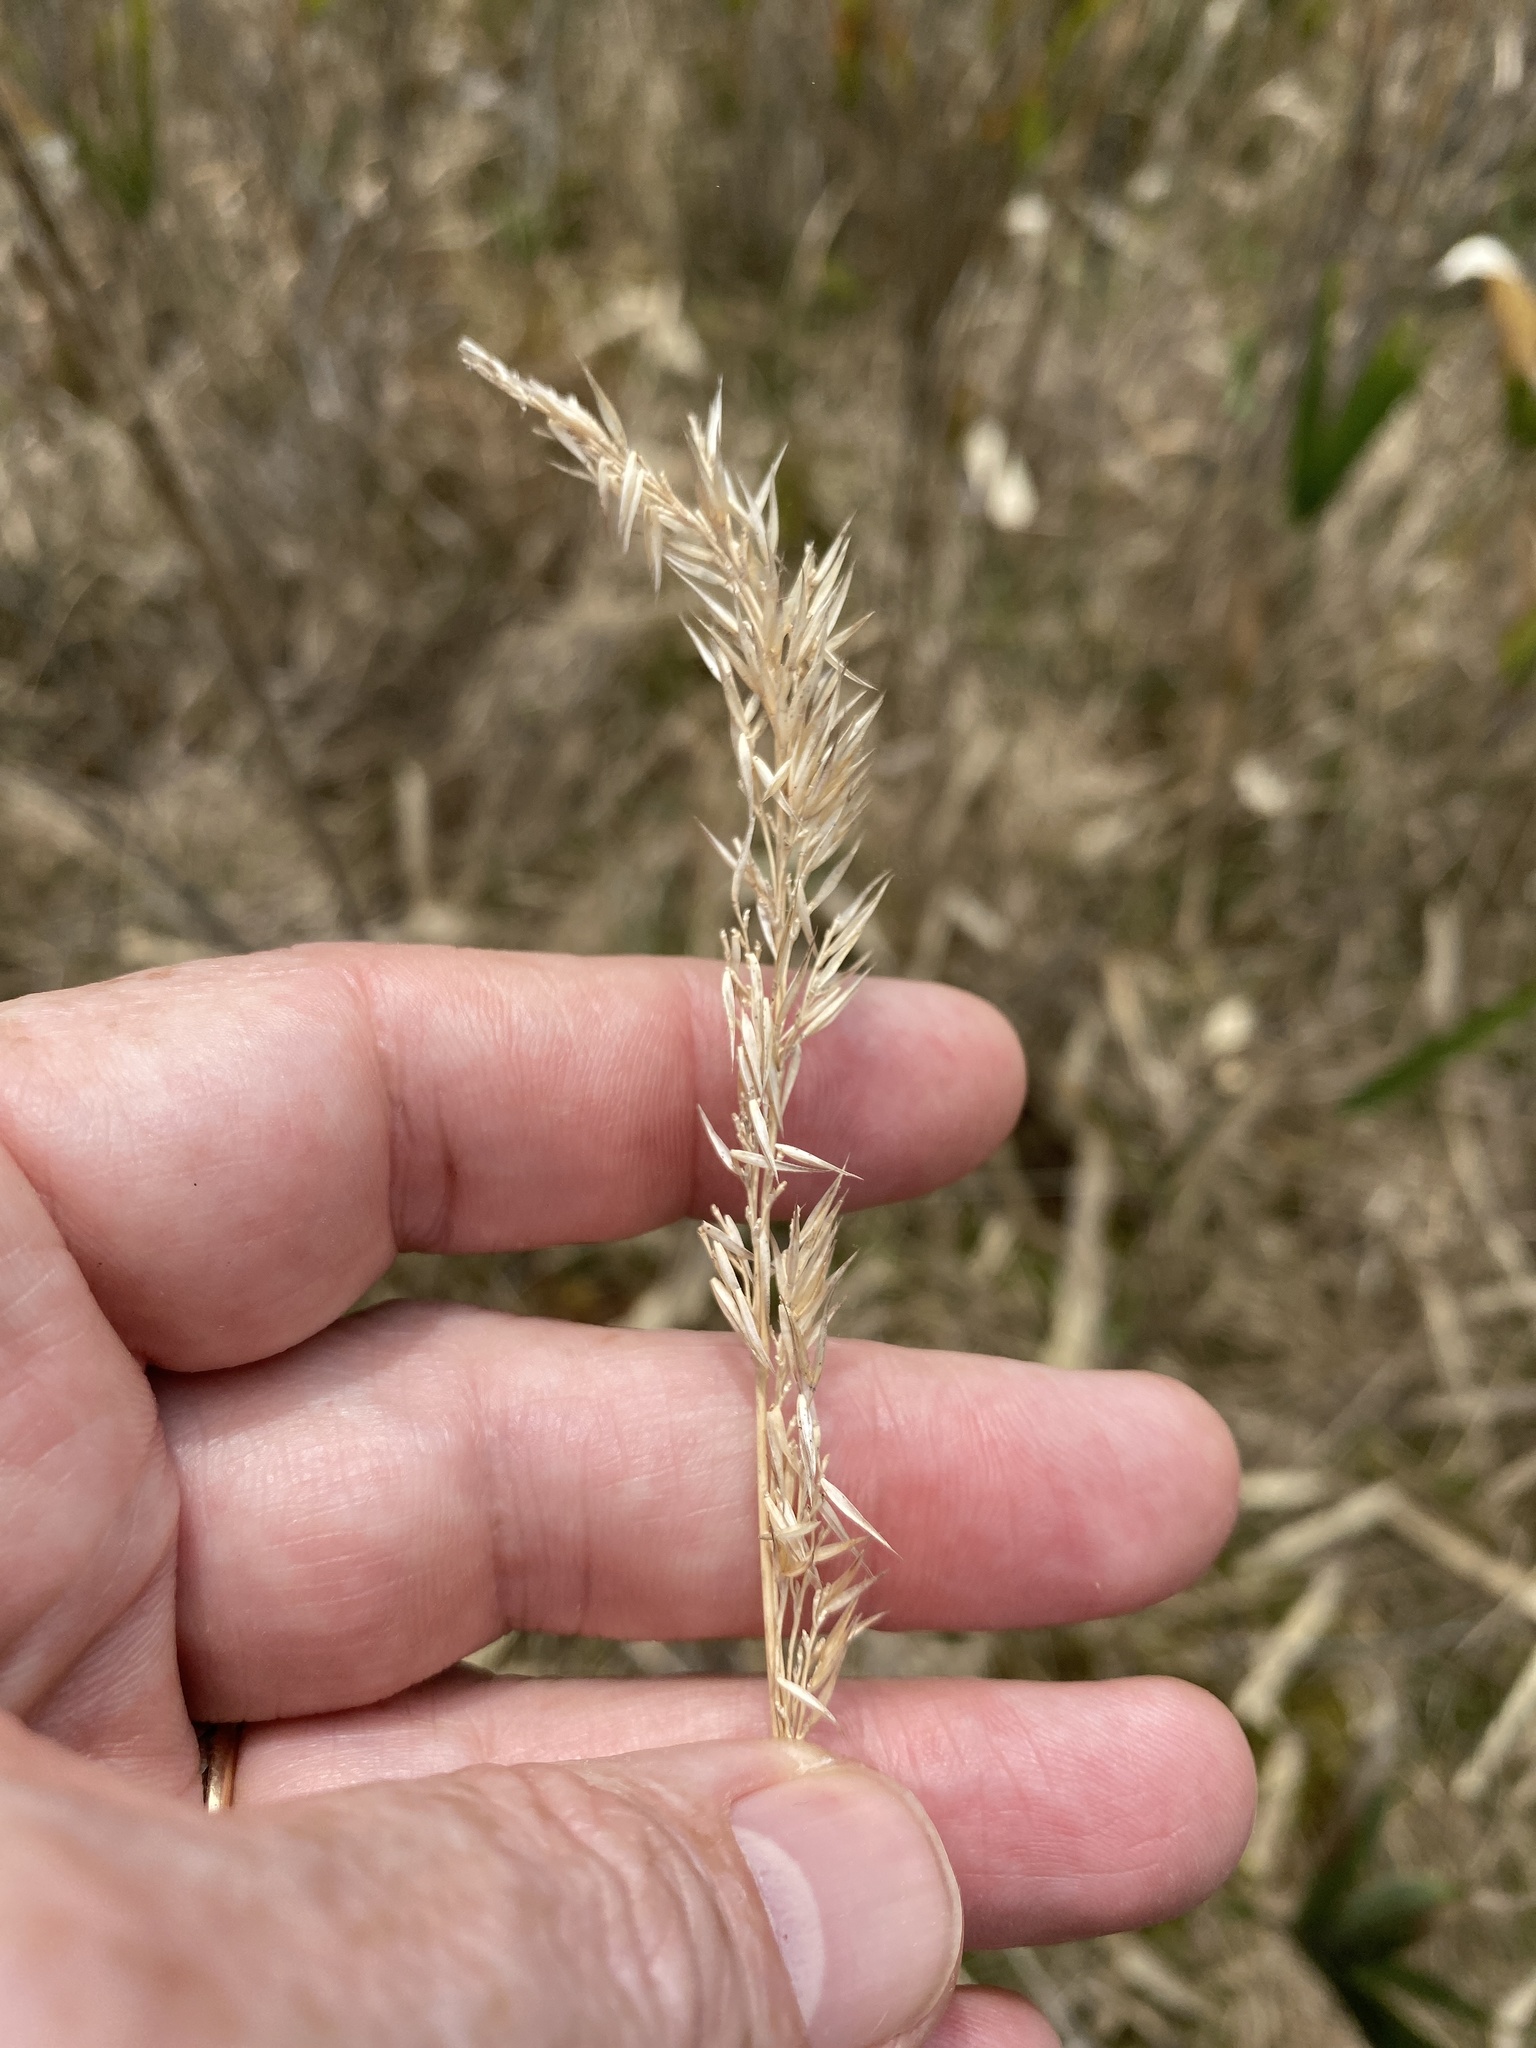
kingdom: Plantae
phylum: Tracheophyta
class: Liliopsida
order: Poales
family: Poaceae
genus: Greeneochloa
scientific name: Greeneochloa coarctata
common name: Small reedgrass
